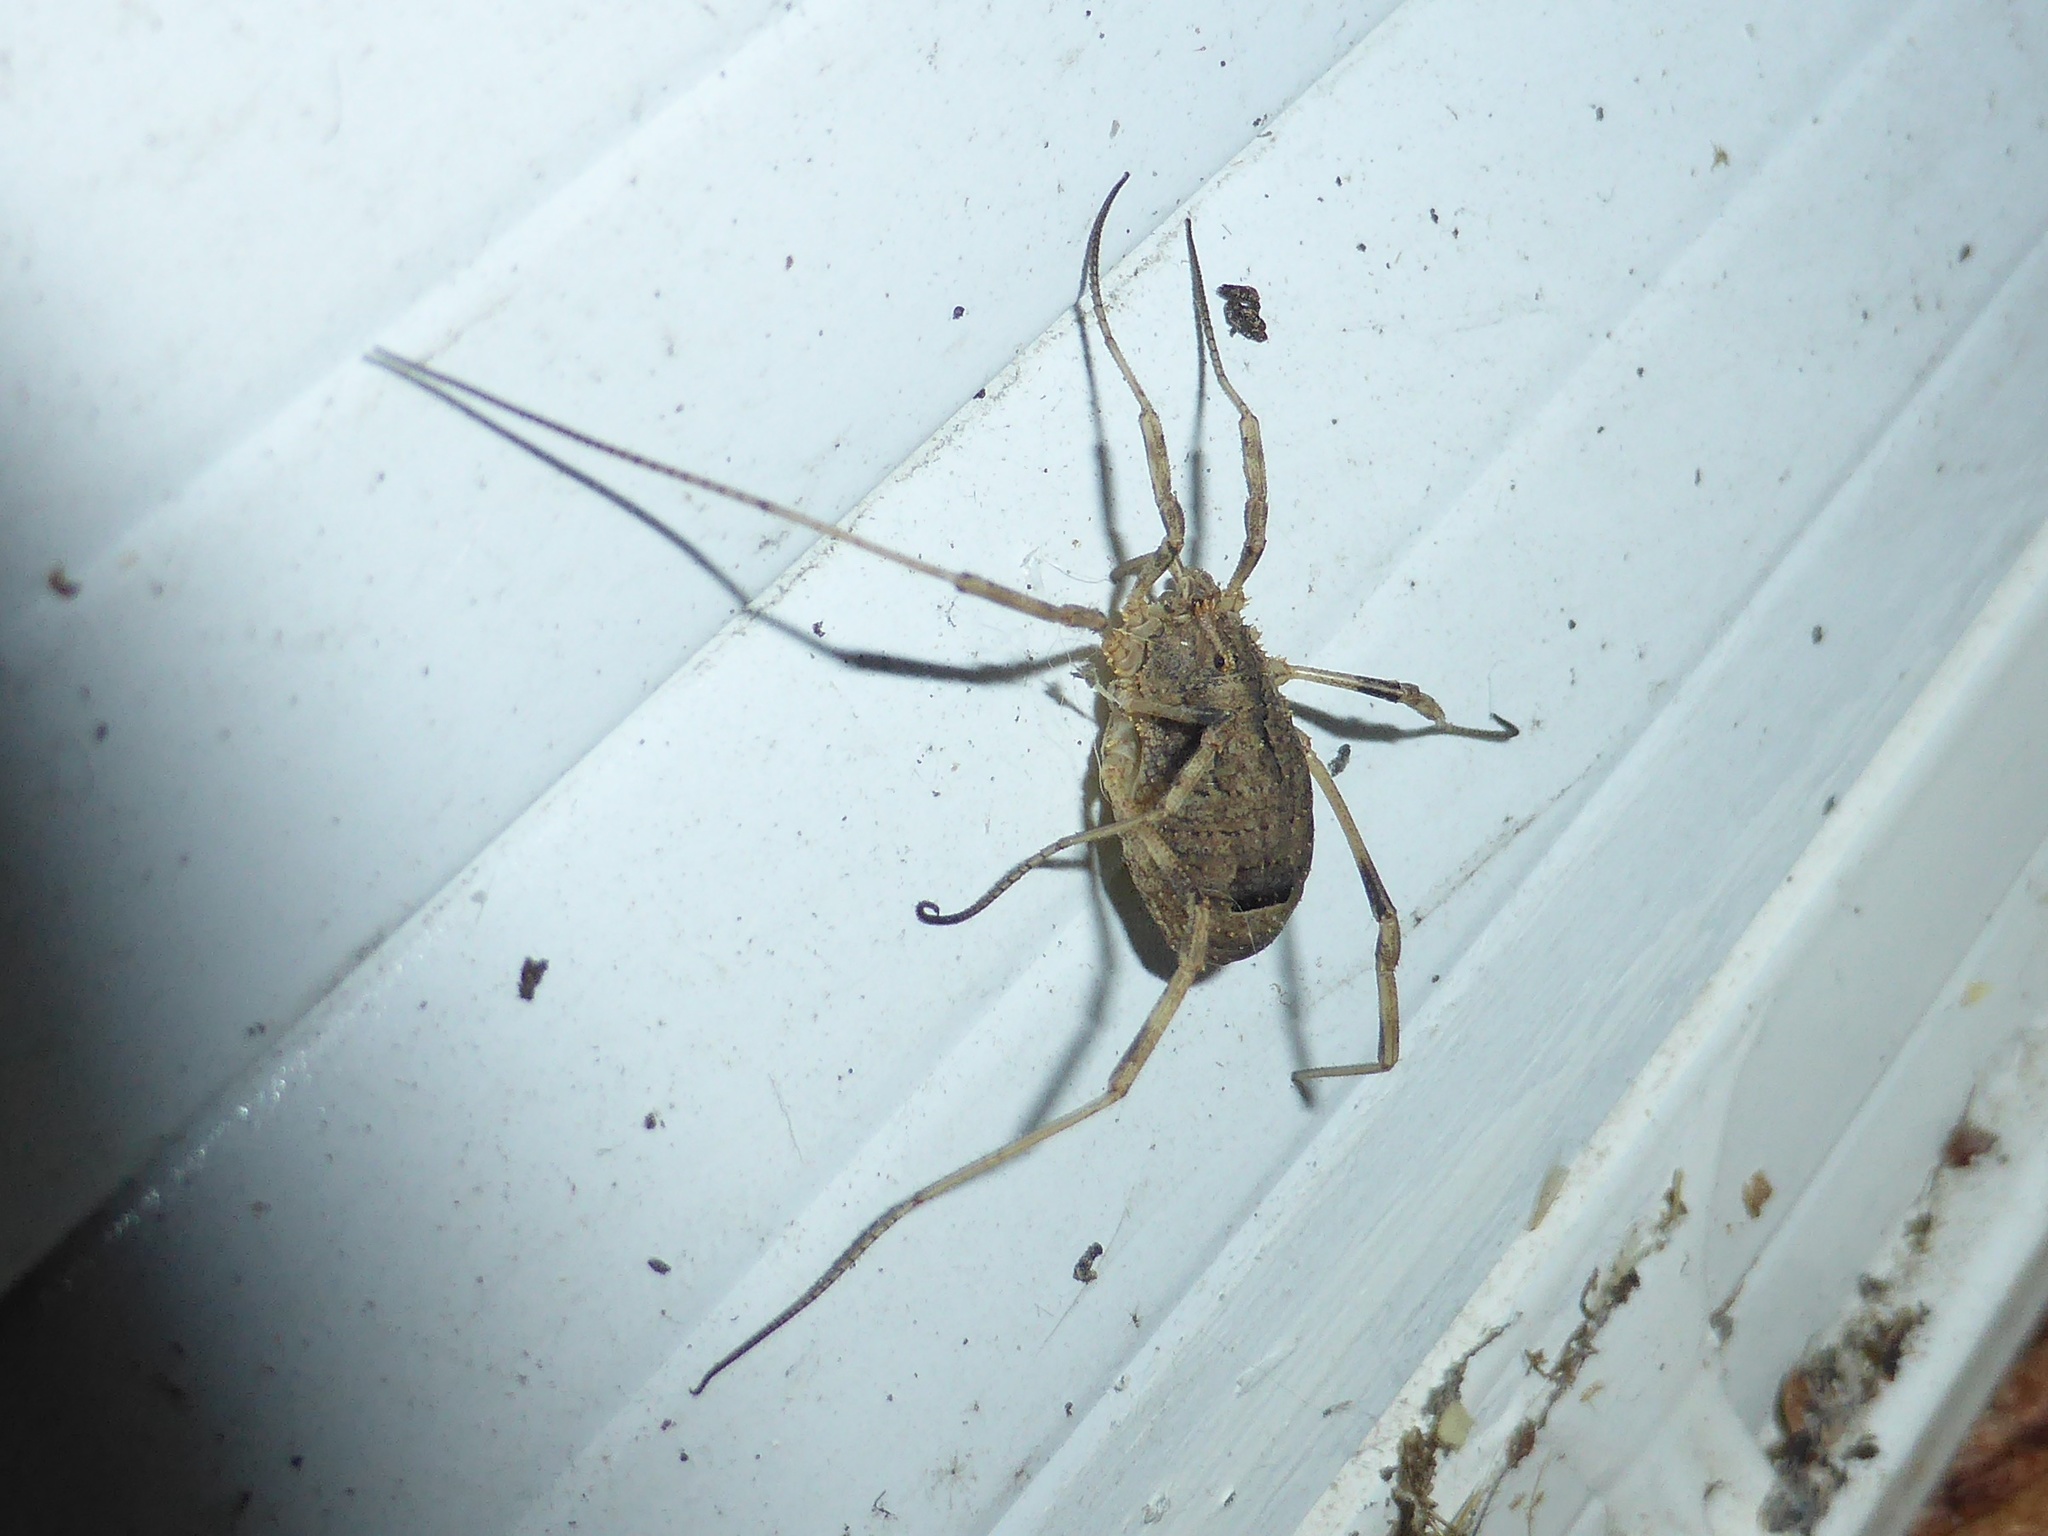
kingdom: Animalia
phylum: Arthropoda
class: Arachnida
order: Opiliones
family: Phalangiidae
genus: Odiellus
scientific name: Odiellus spinosus
